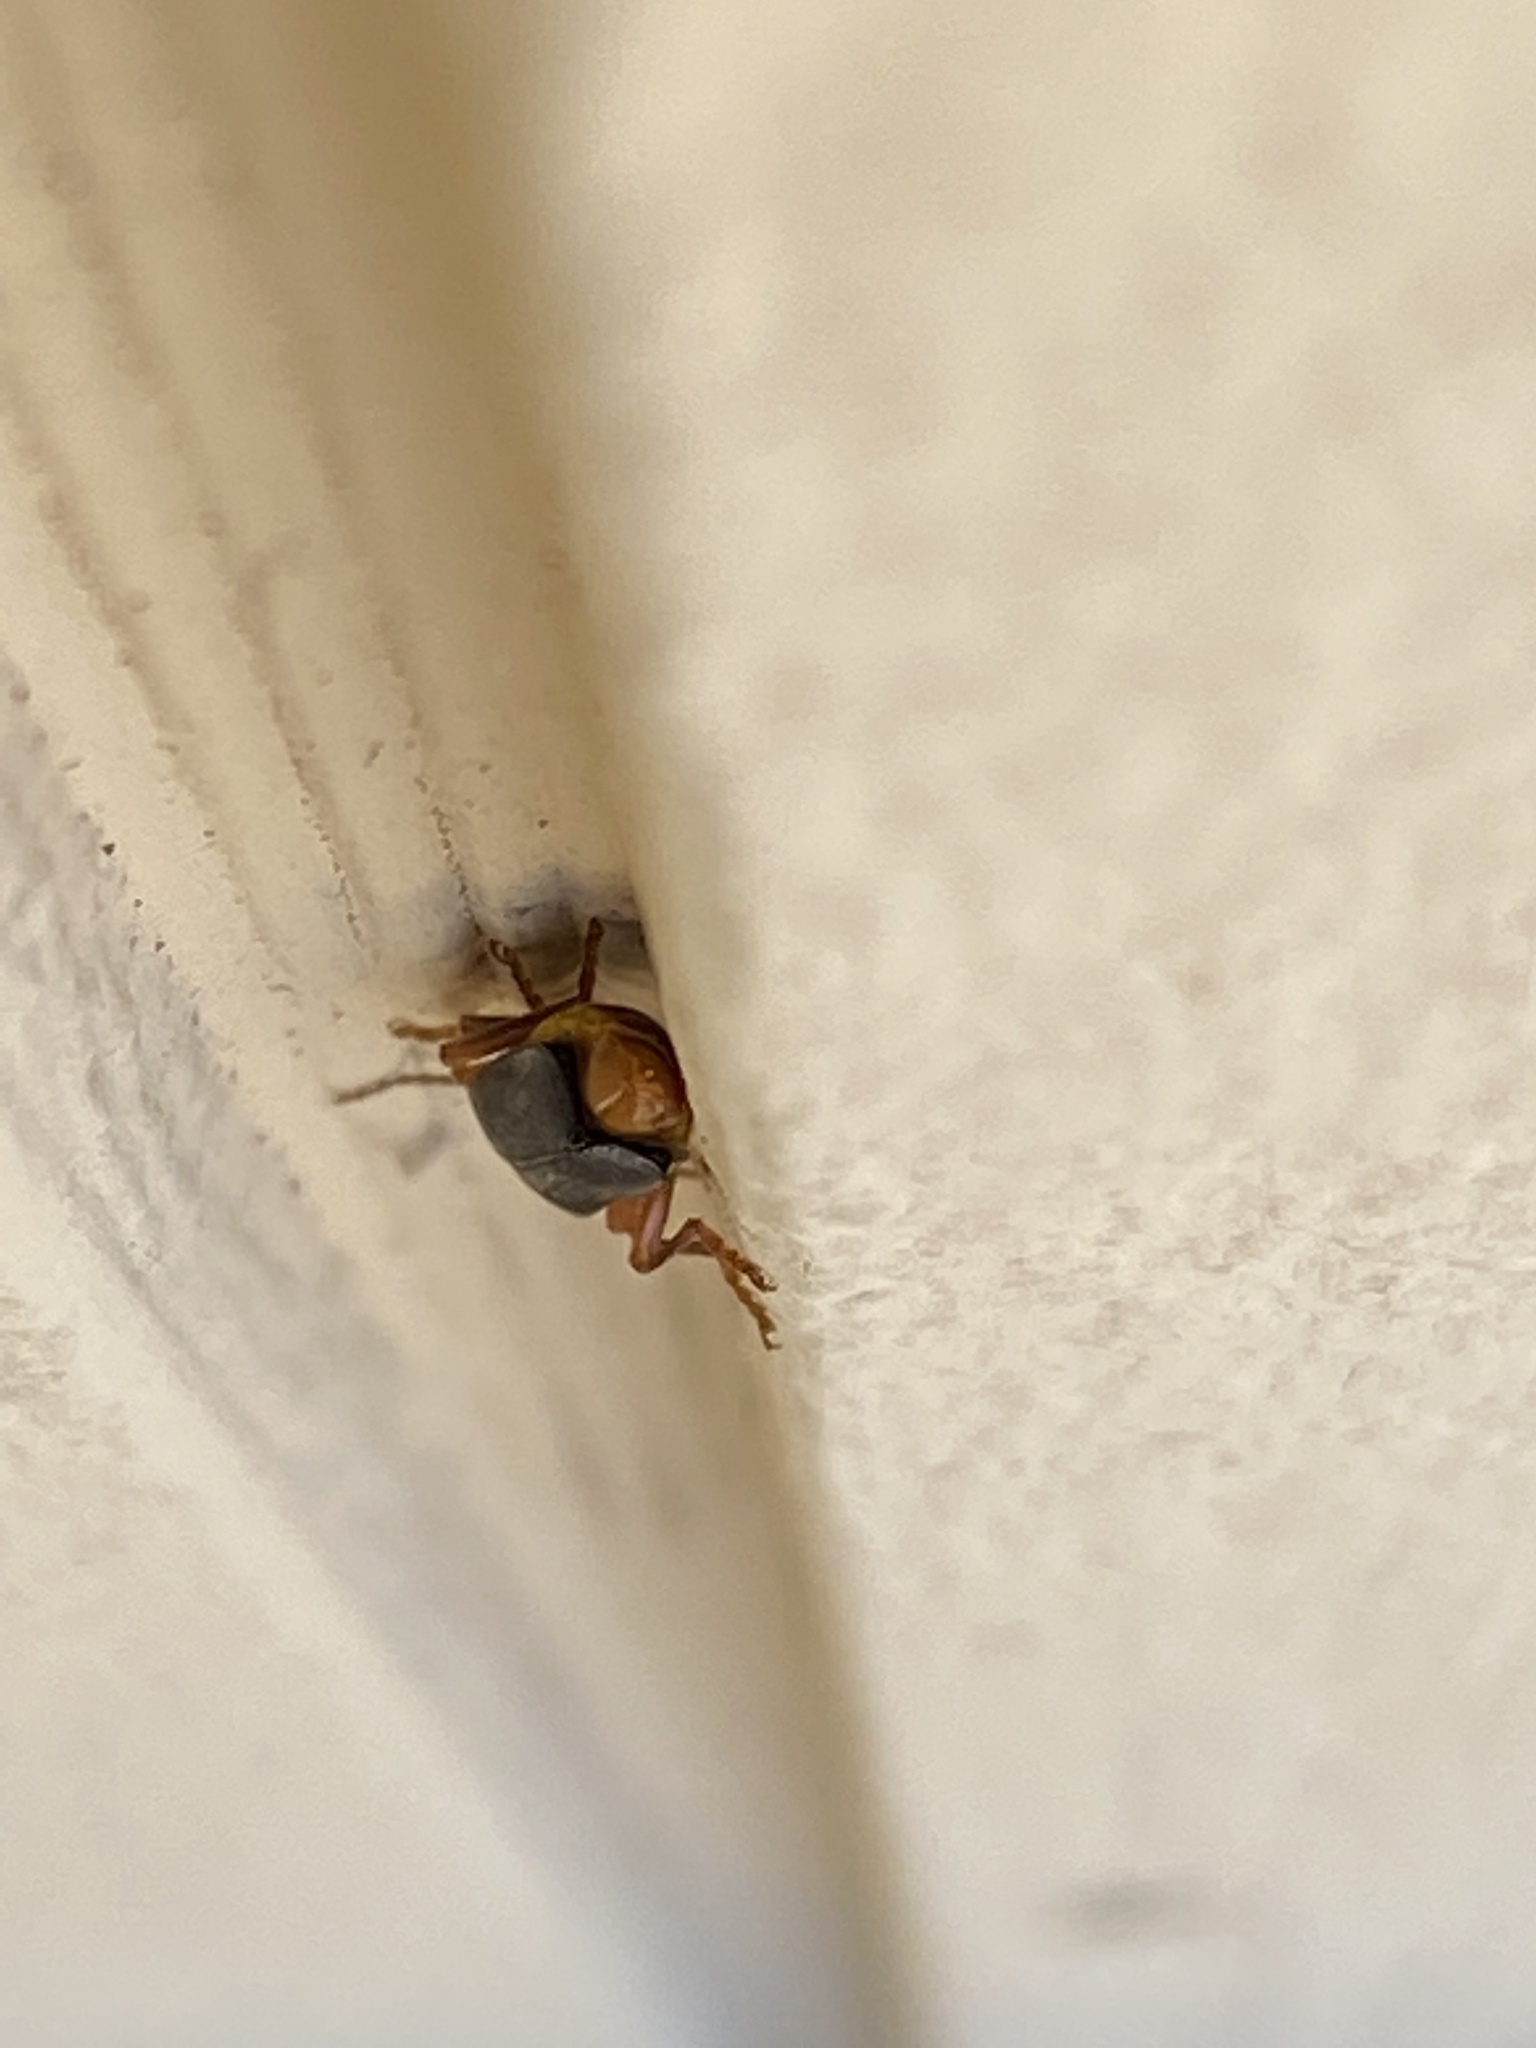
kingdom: Animalia
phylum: Arthropoda
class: Insecta
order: Coleoptera
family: Cantharidae
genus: Podabrus
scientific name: Podabrus pruinosus
